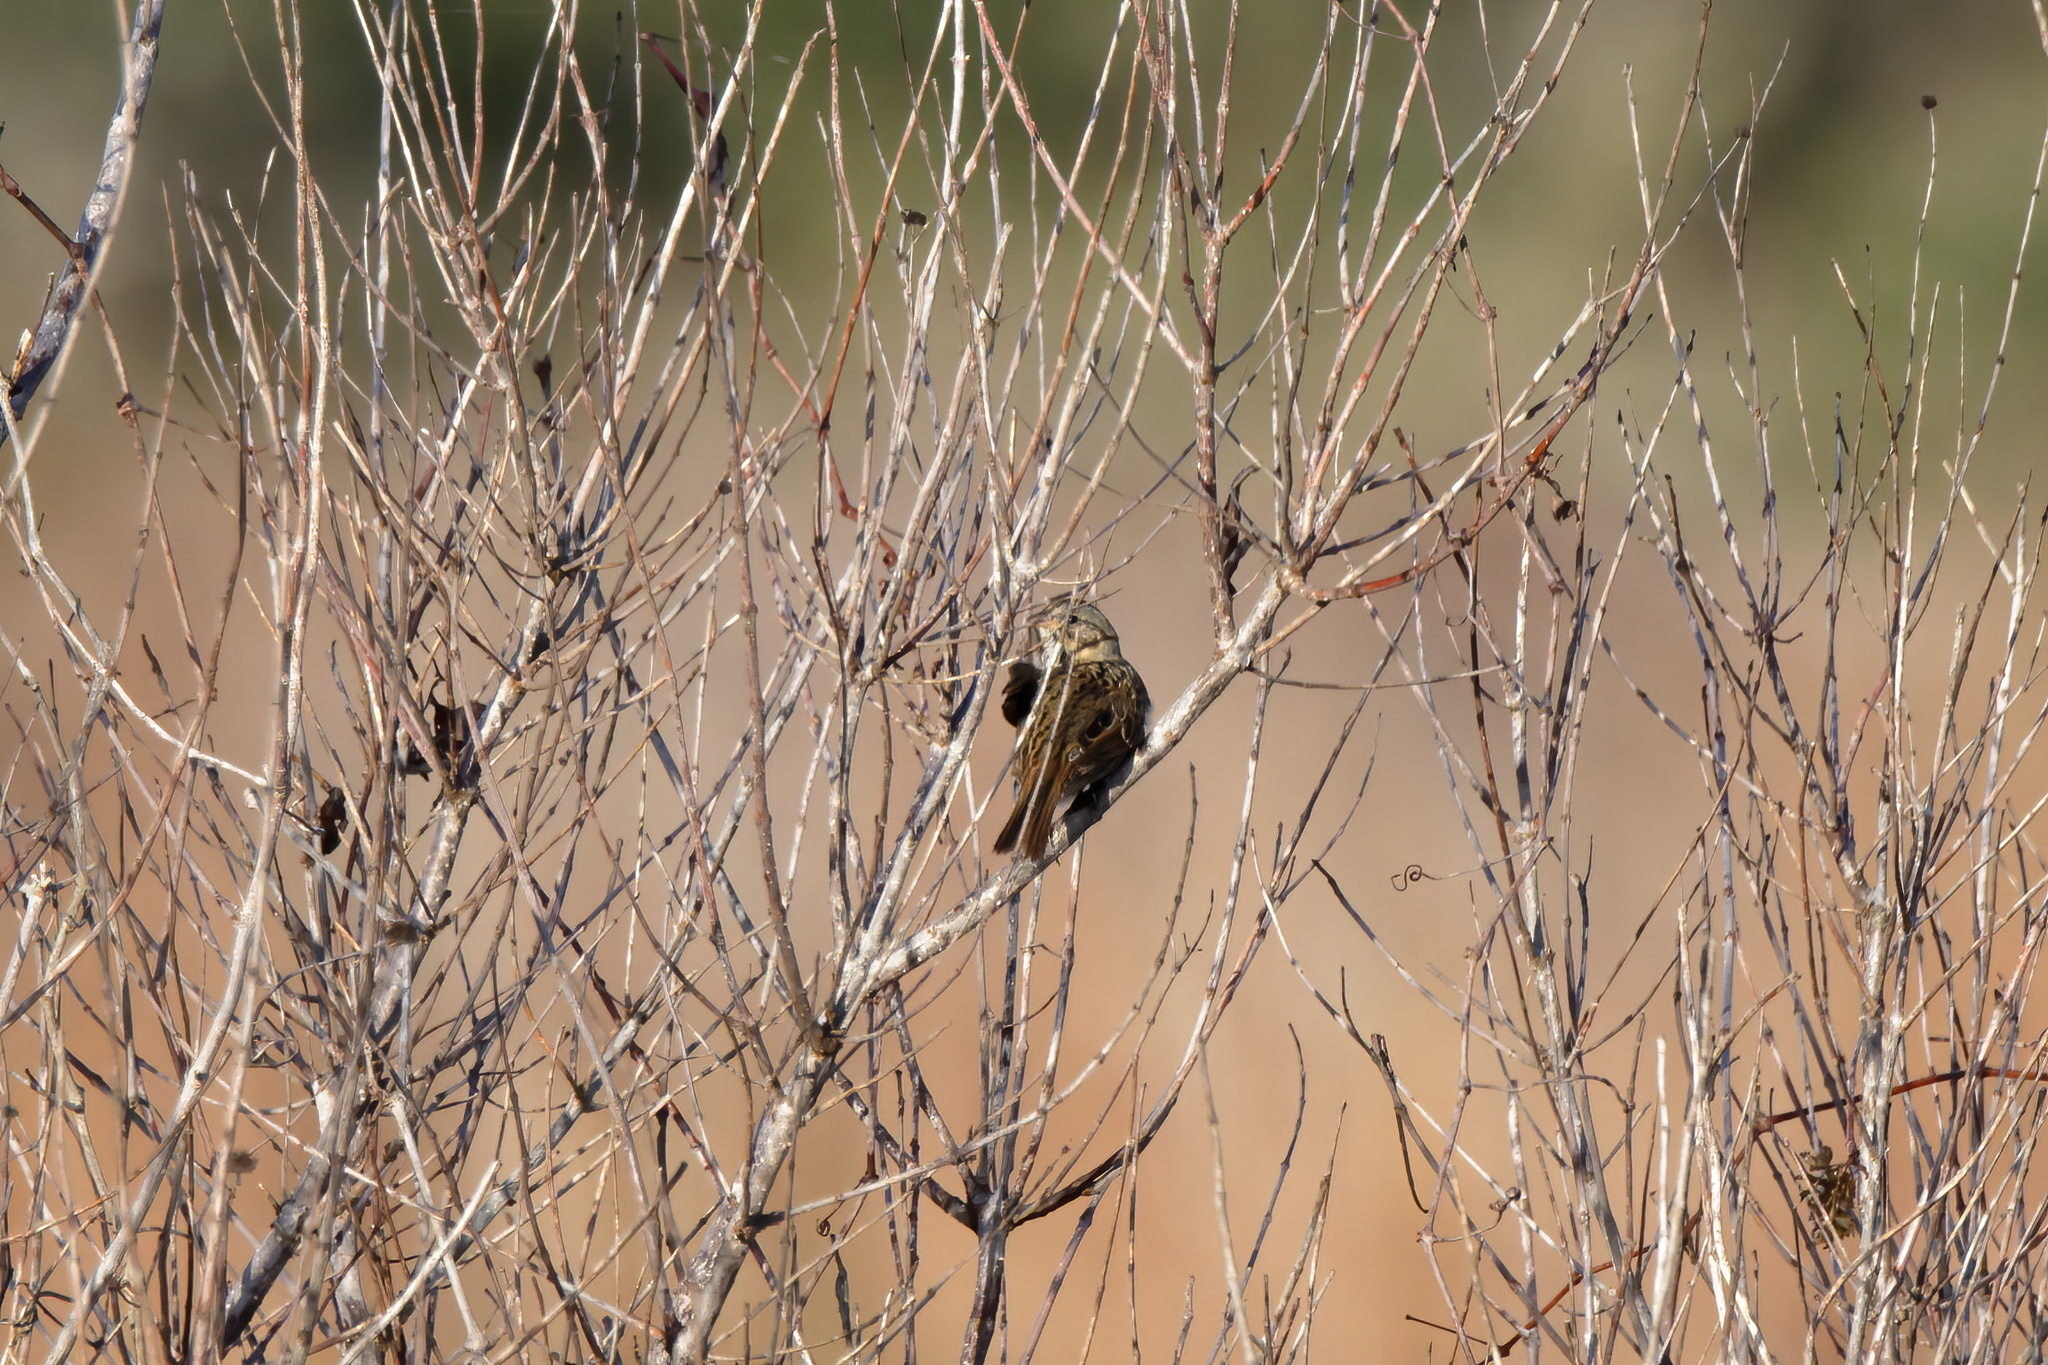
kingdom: Animalia
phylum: Chordata
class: Aves
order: Passeriformes
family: Passerellidae
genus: Melospiza
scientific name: Melospiza lincolnii
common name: Lincoln's sparrow
